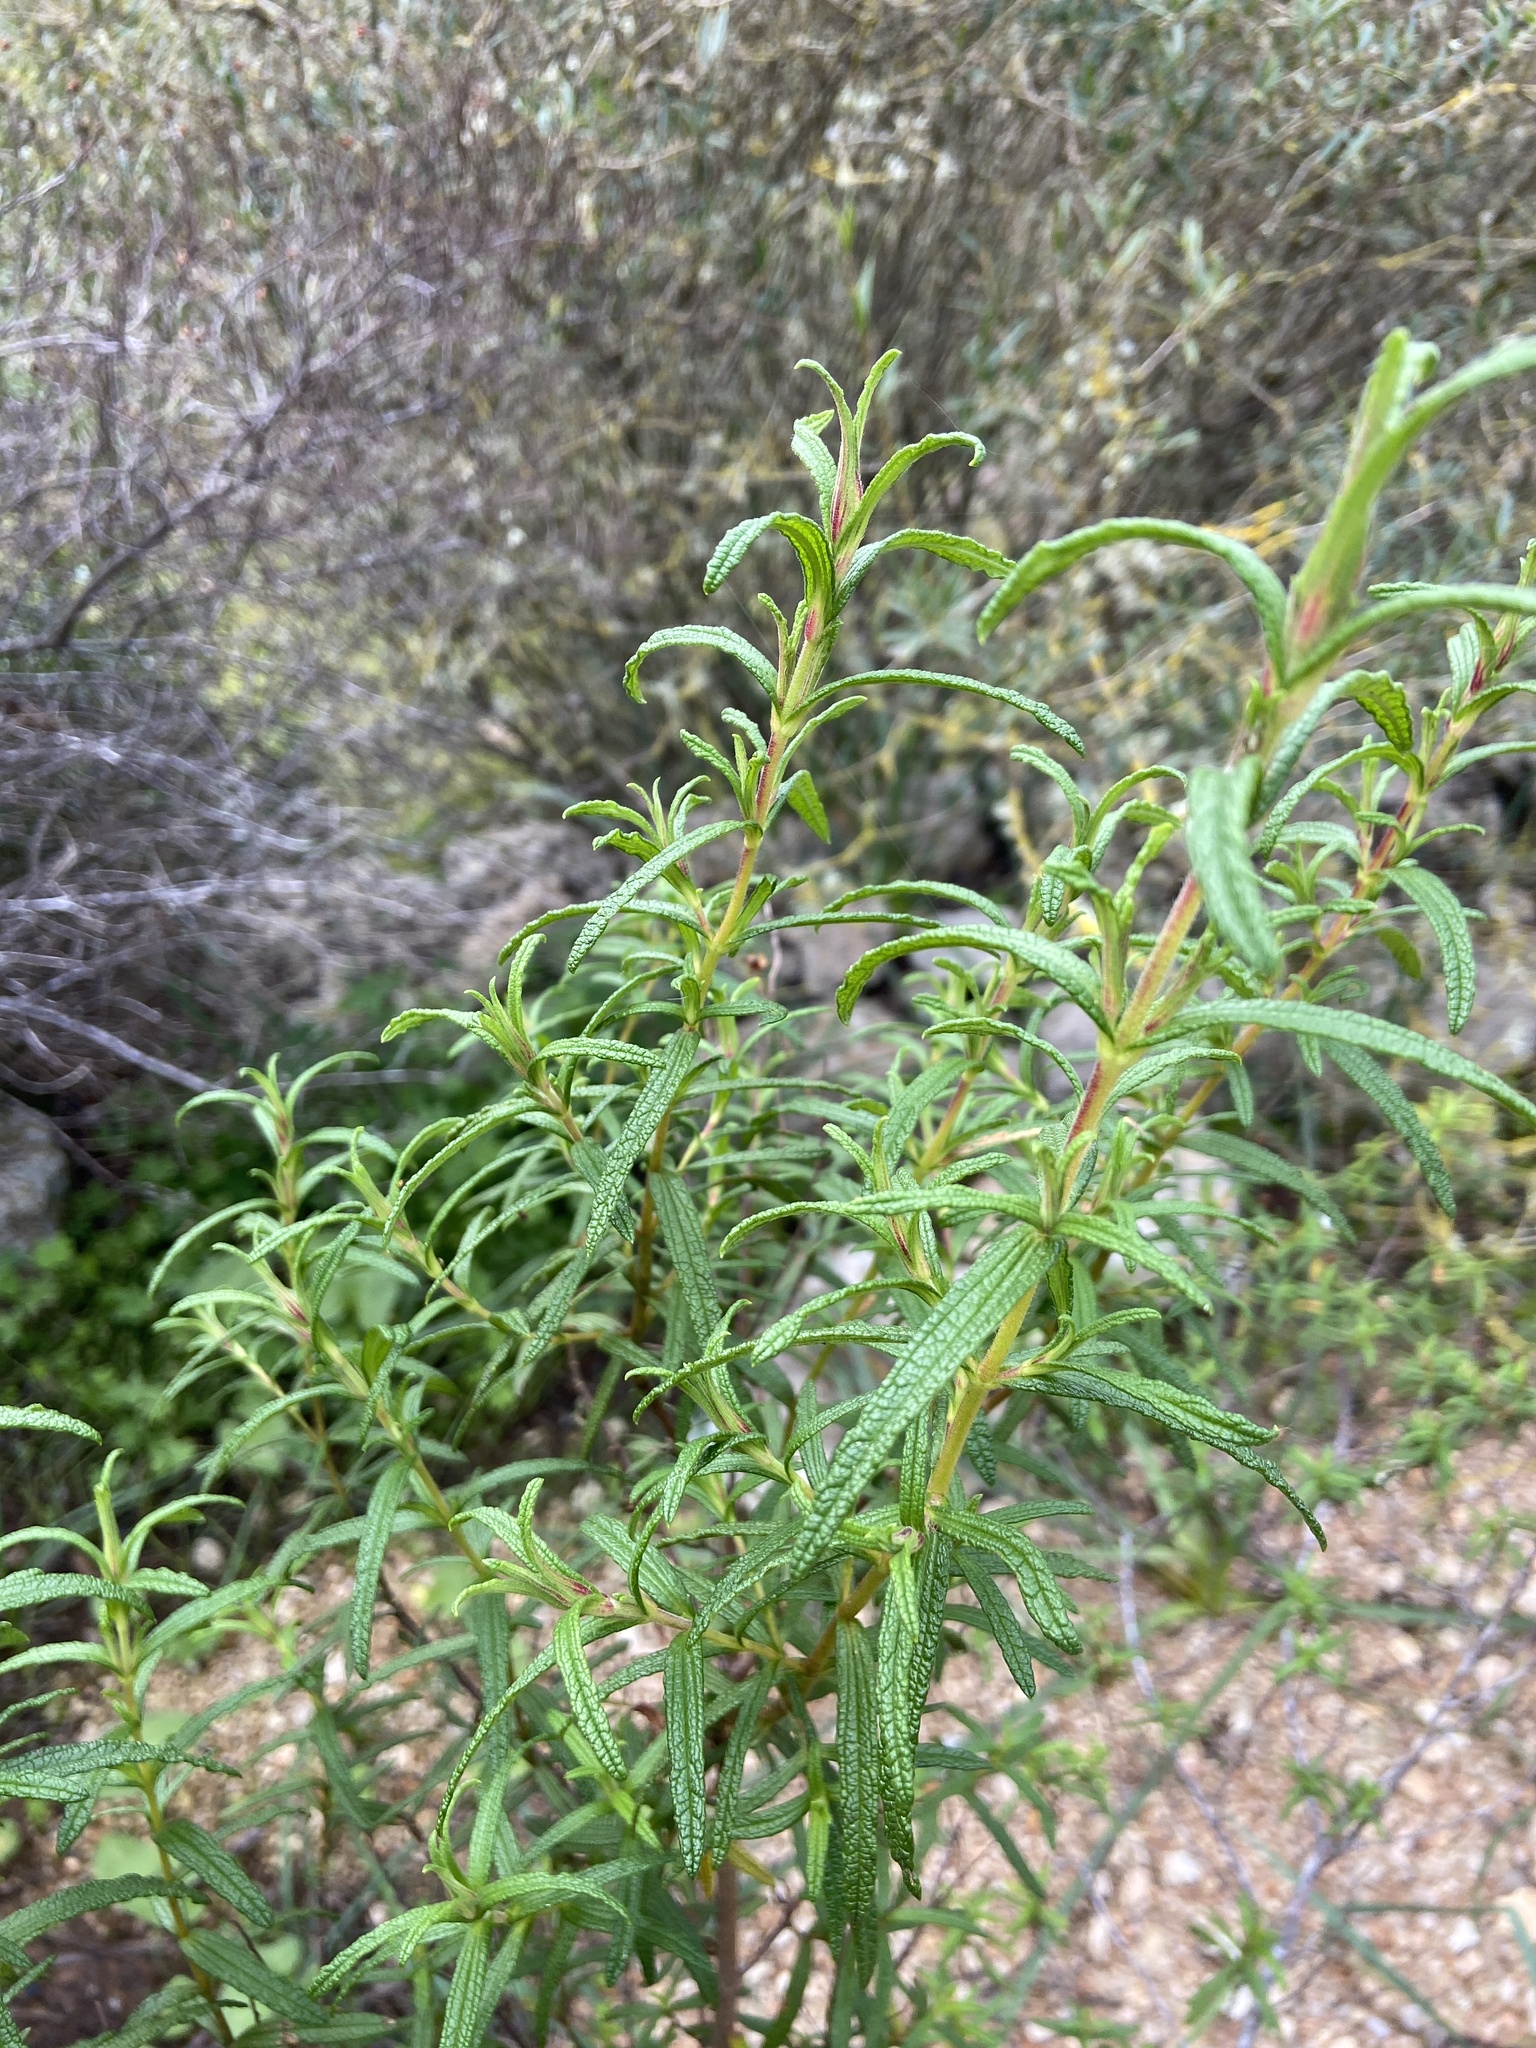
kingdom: Plantae
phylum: Tracheophyta
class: Magnoliopsida
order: Malvales
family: Cistaceae
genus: Cistus
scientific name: Cistus monspeliensis
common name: Montpelier cistus
